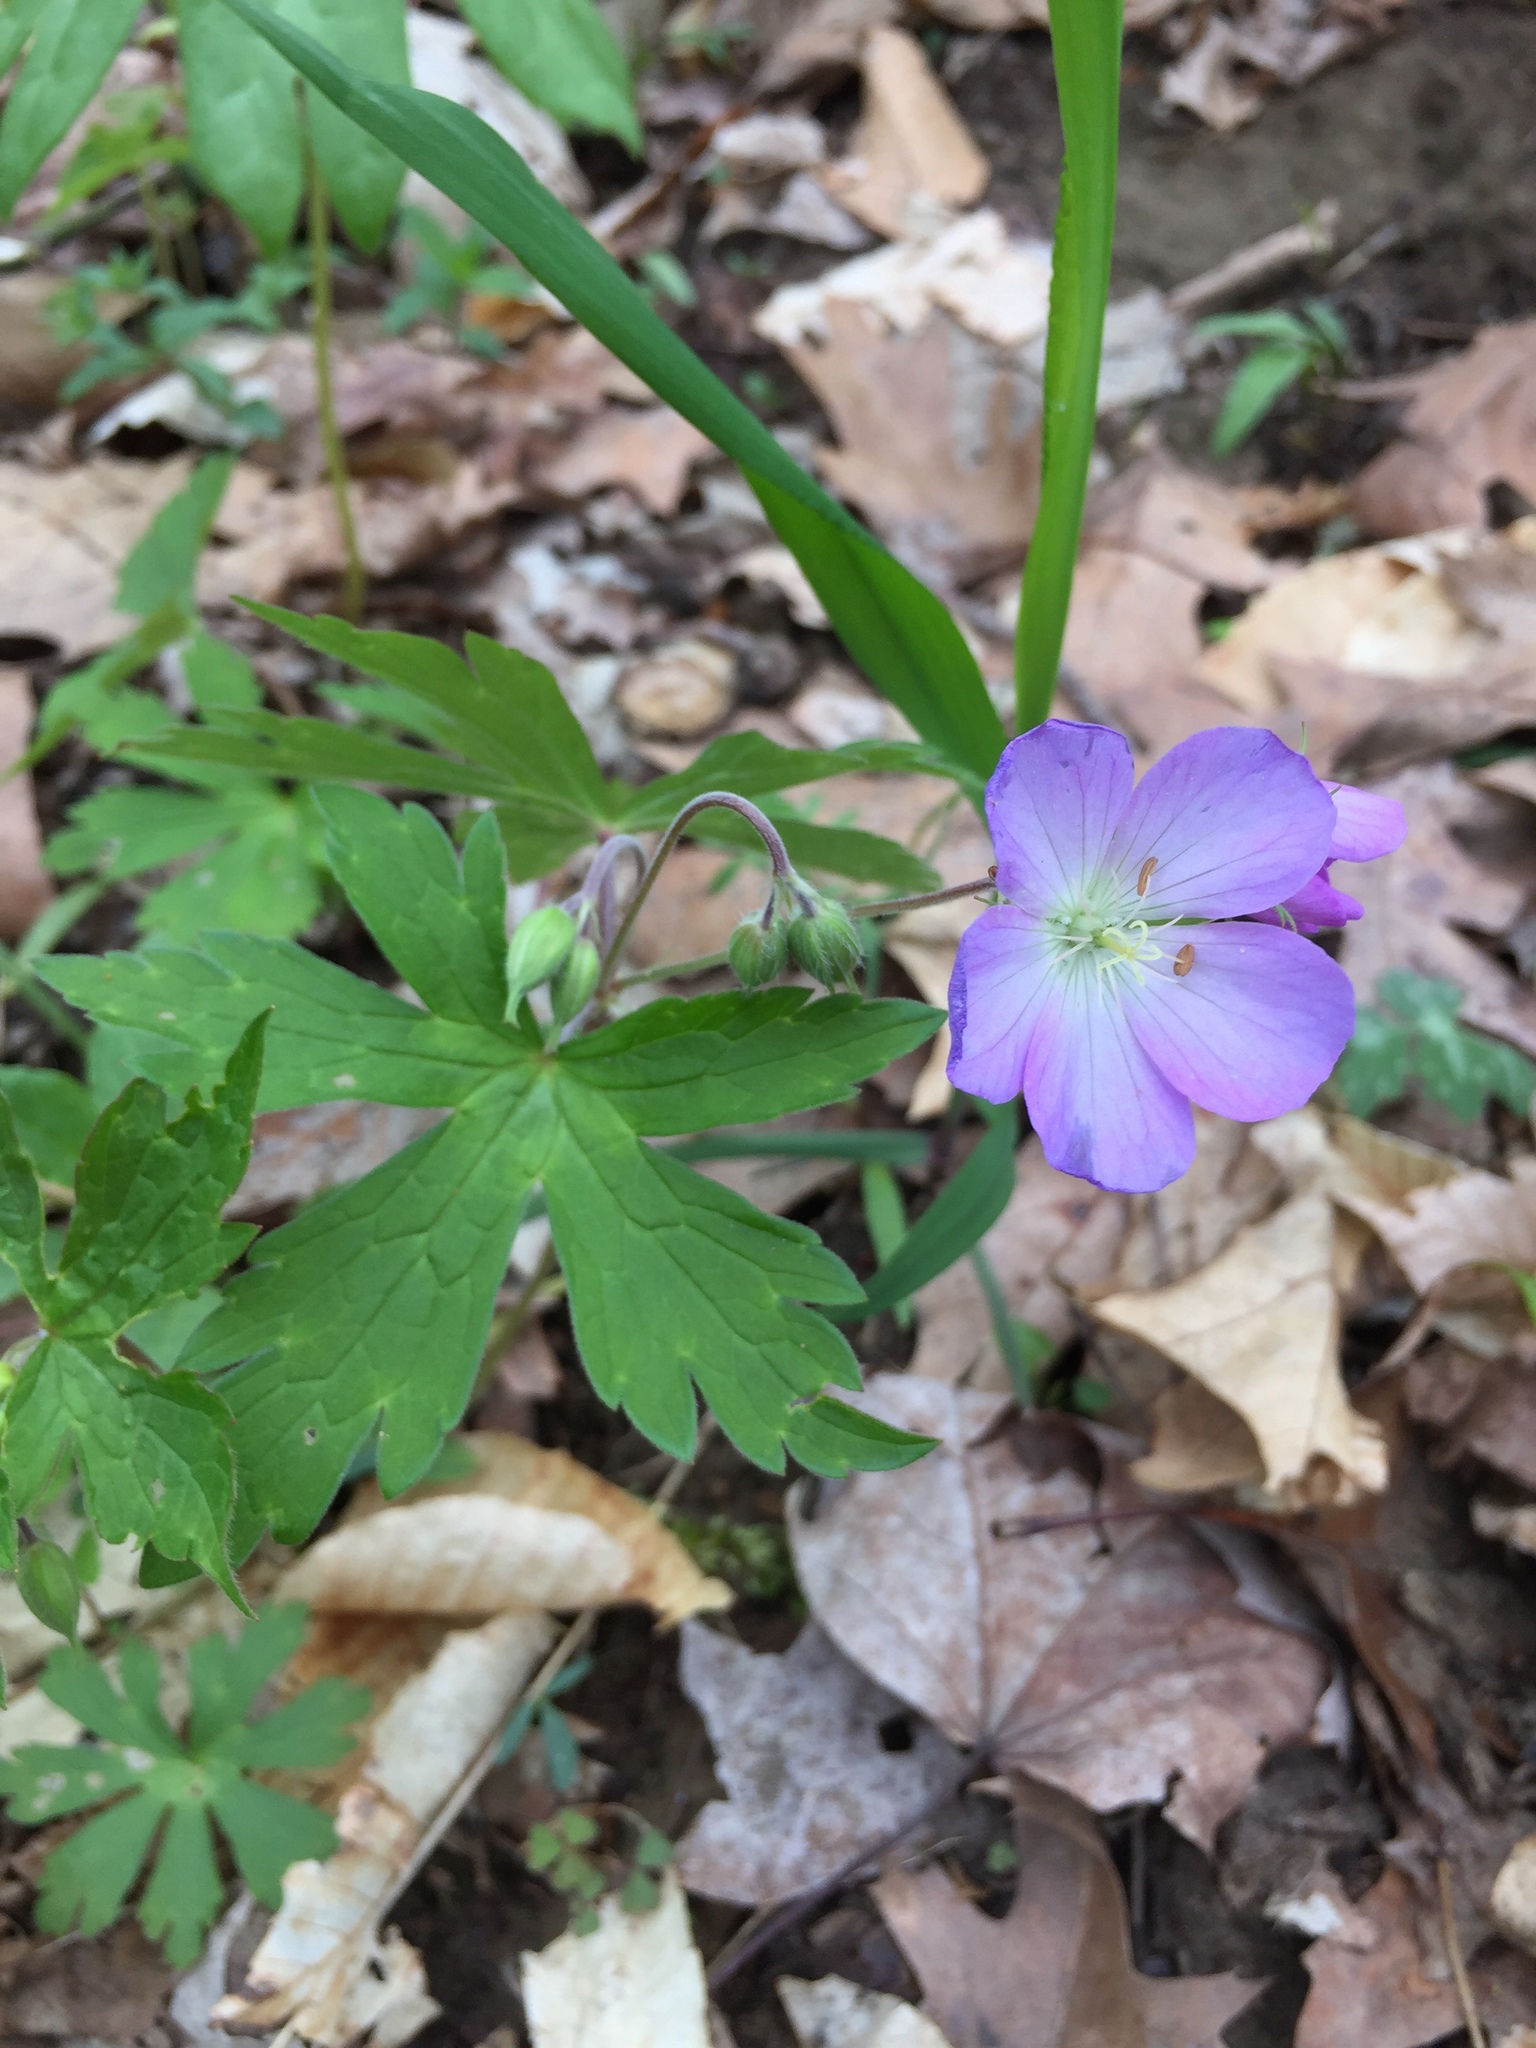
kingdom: Plantae
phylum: Tracheophyta
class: Magnoliopsida
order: Geraniales
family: Geraniaceae
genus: Geranium
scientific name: Geranium maculatum
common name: Spotted geranium
